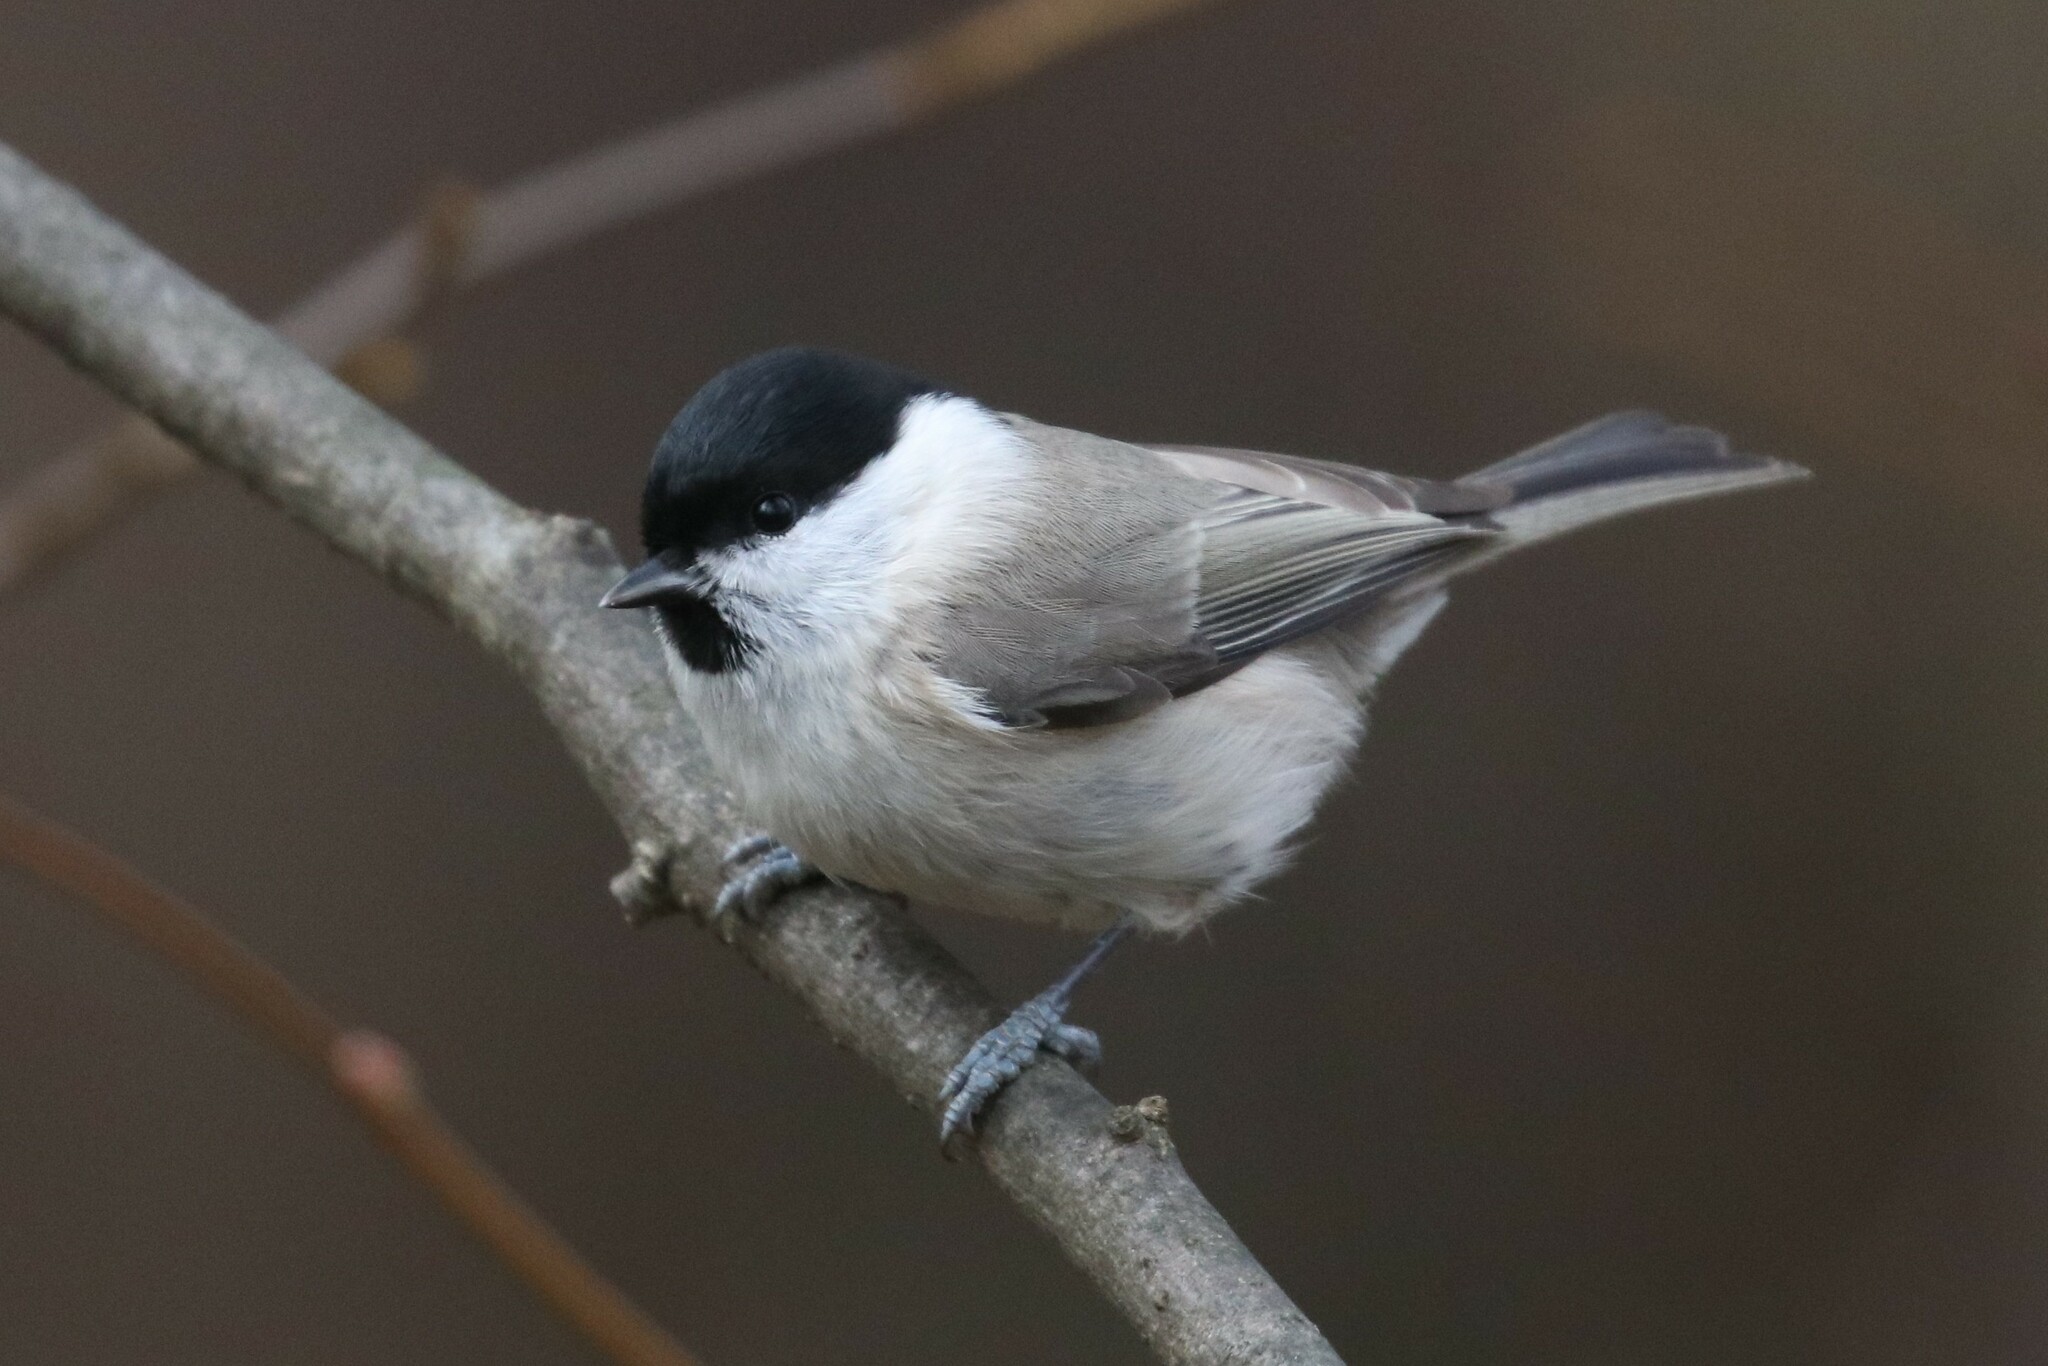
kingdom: Animalia
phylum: Chordata
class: Aves
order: Passeriformes
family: Paridae
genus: Poecile
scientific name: Poecile palustris
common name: Marsh tit
